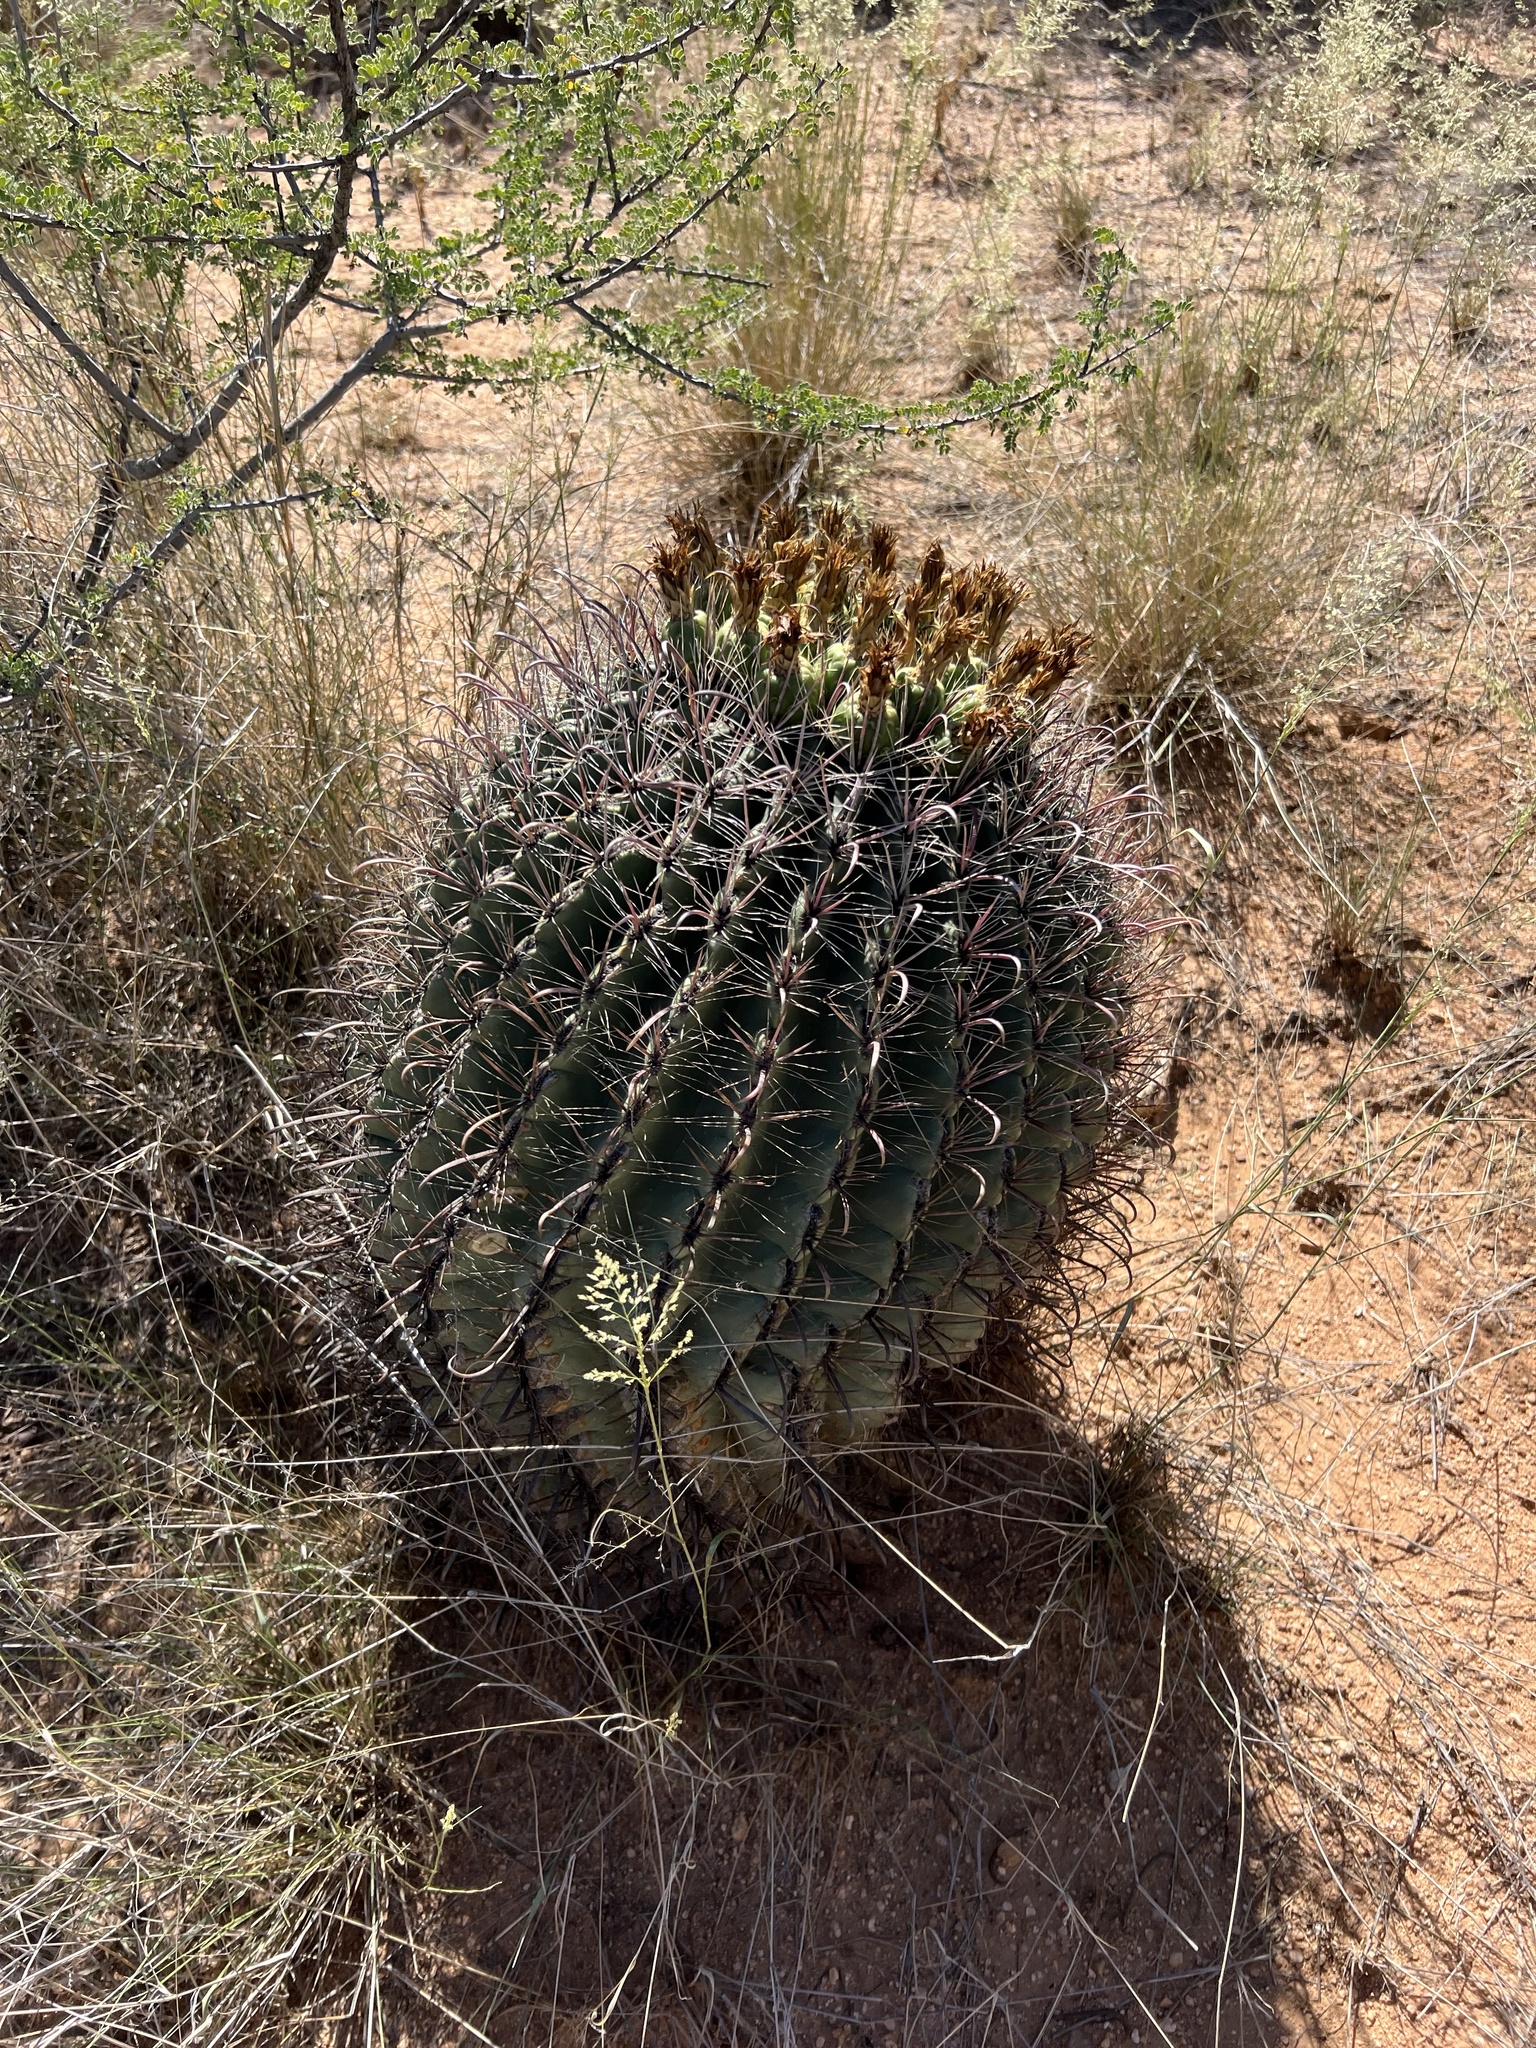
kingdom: Plantae
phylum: Tracheophyta
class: Magnoliopsida
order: Caryophyllales
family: Cactaceae
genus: Ferocactus
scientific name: Ferocactus wislizeni
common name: Candy barrel cactus
